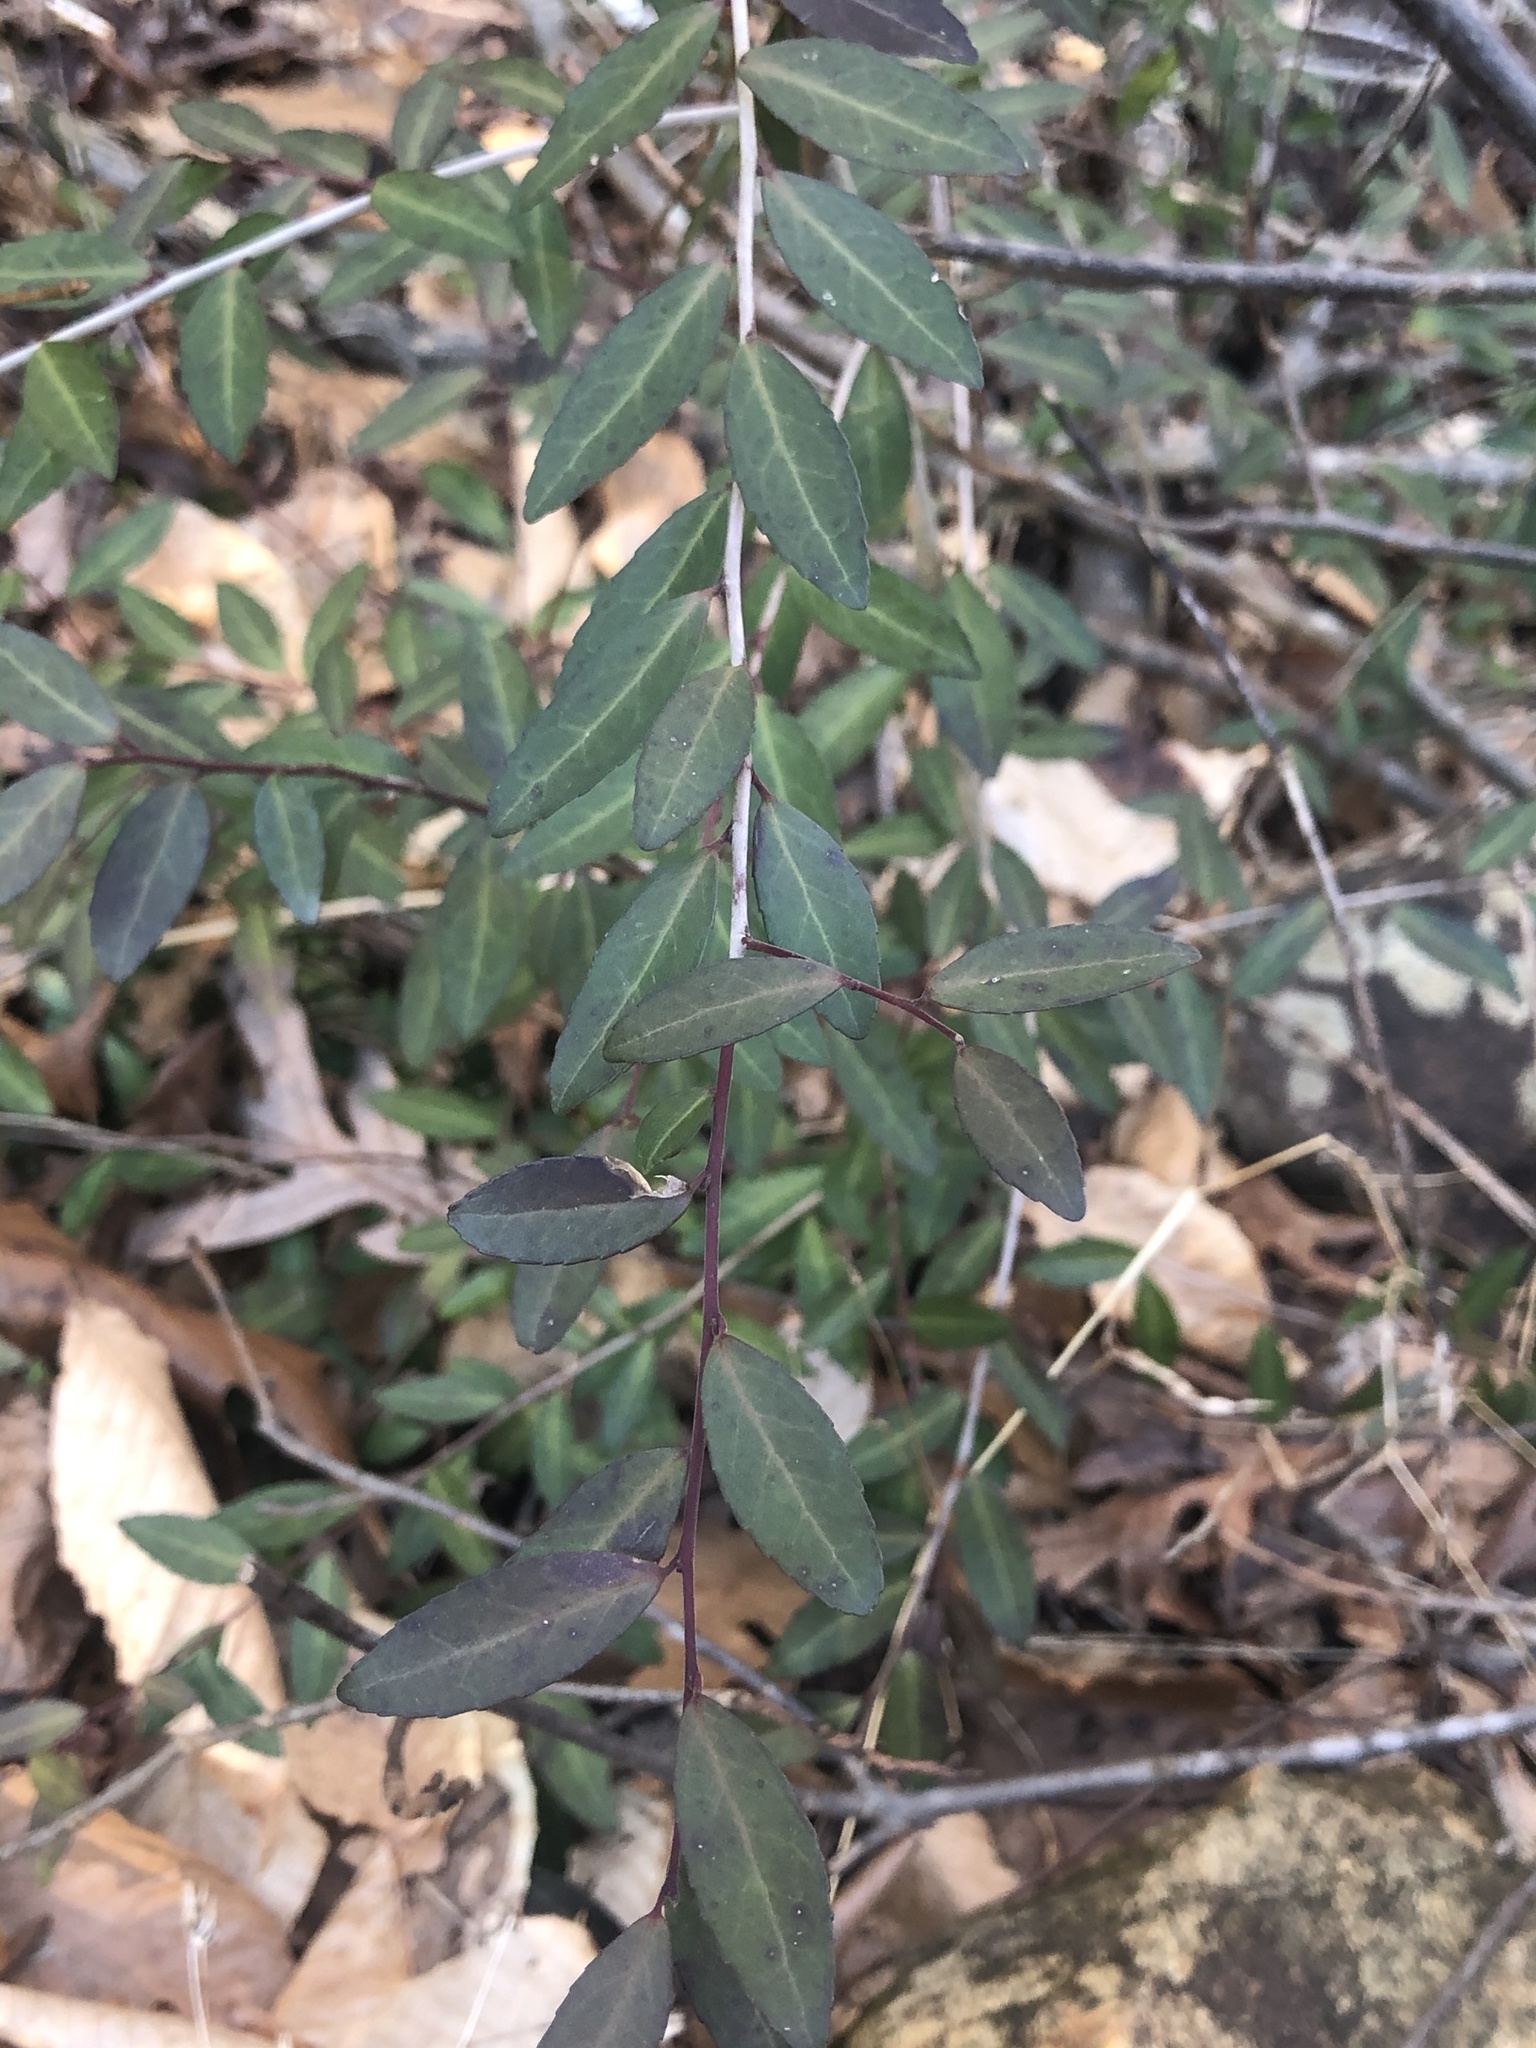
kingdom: Plantae
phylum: Tracheophyta
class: Magnoliopsida
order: Aquifoliales
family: Aquifoliaceae
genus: Ilex
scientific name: Ilex vomitoria
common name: Yaupon holly
